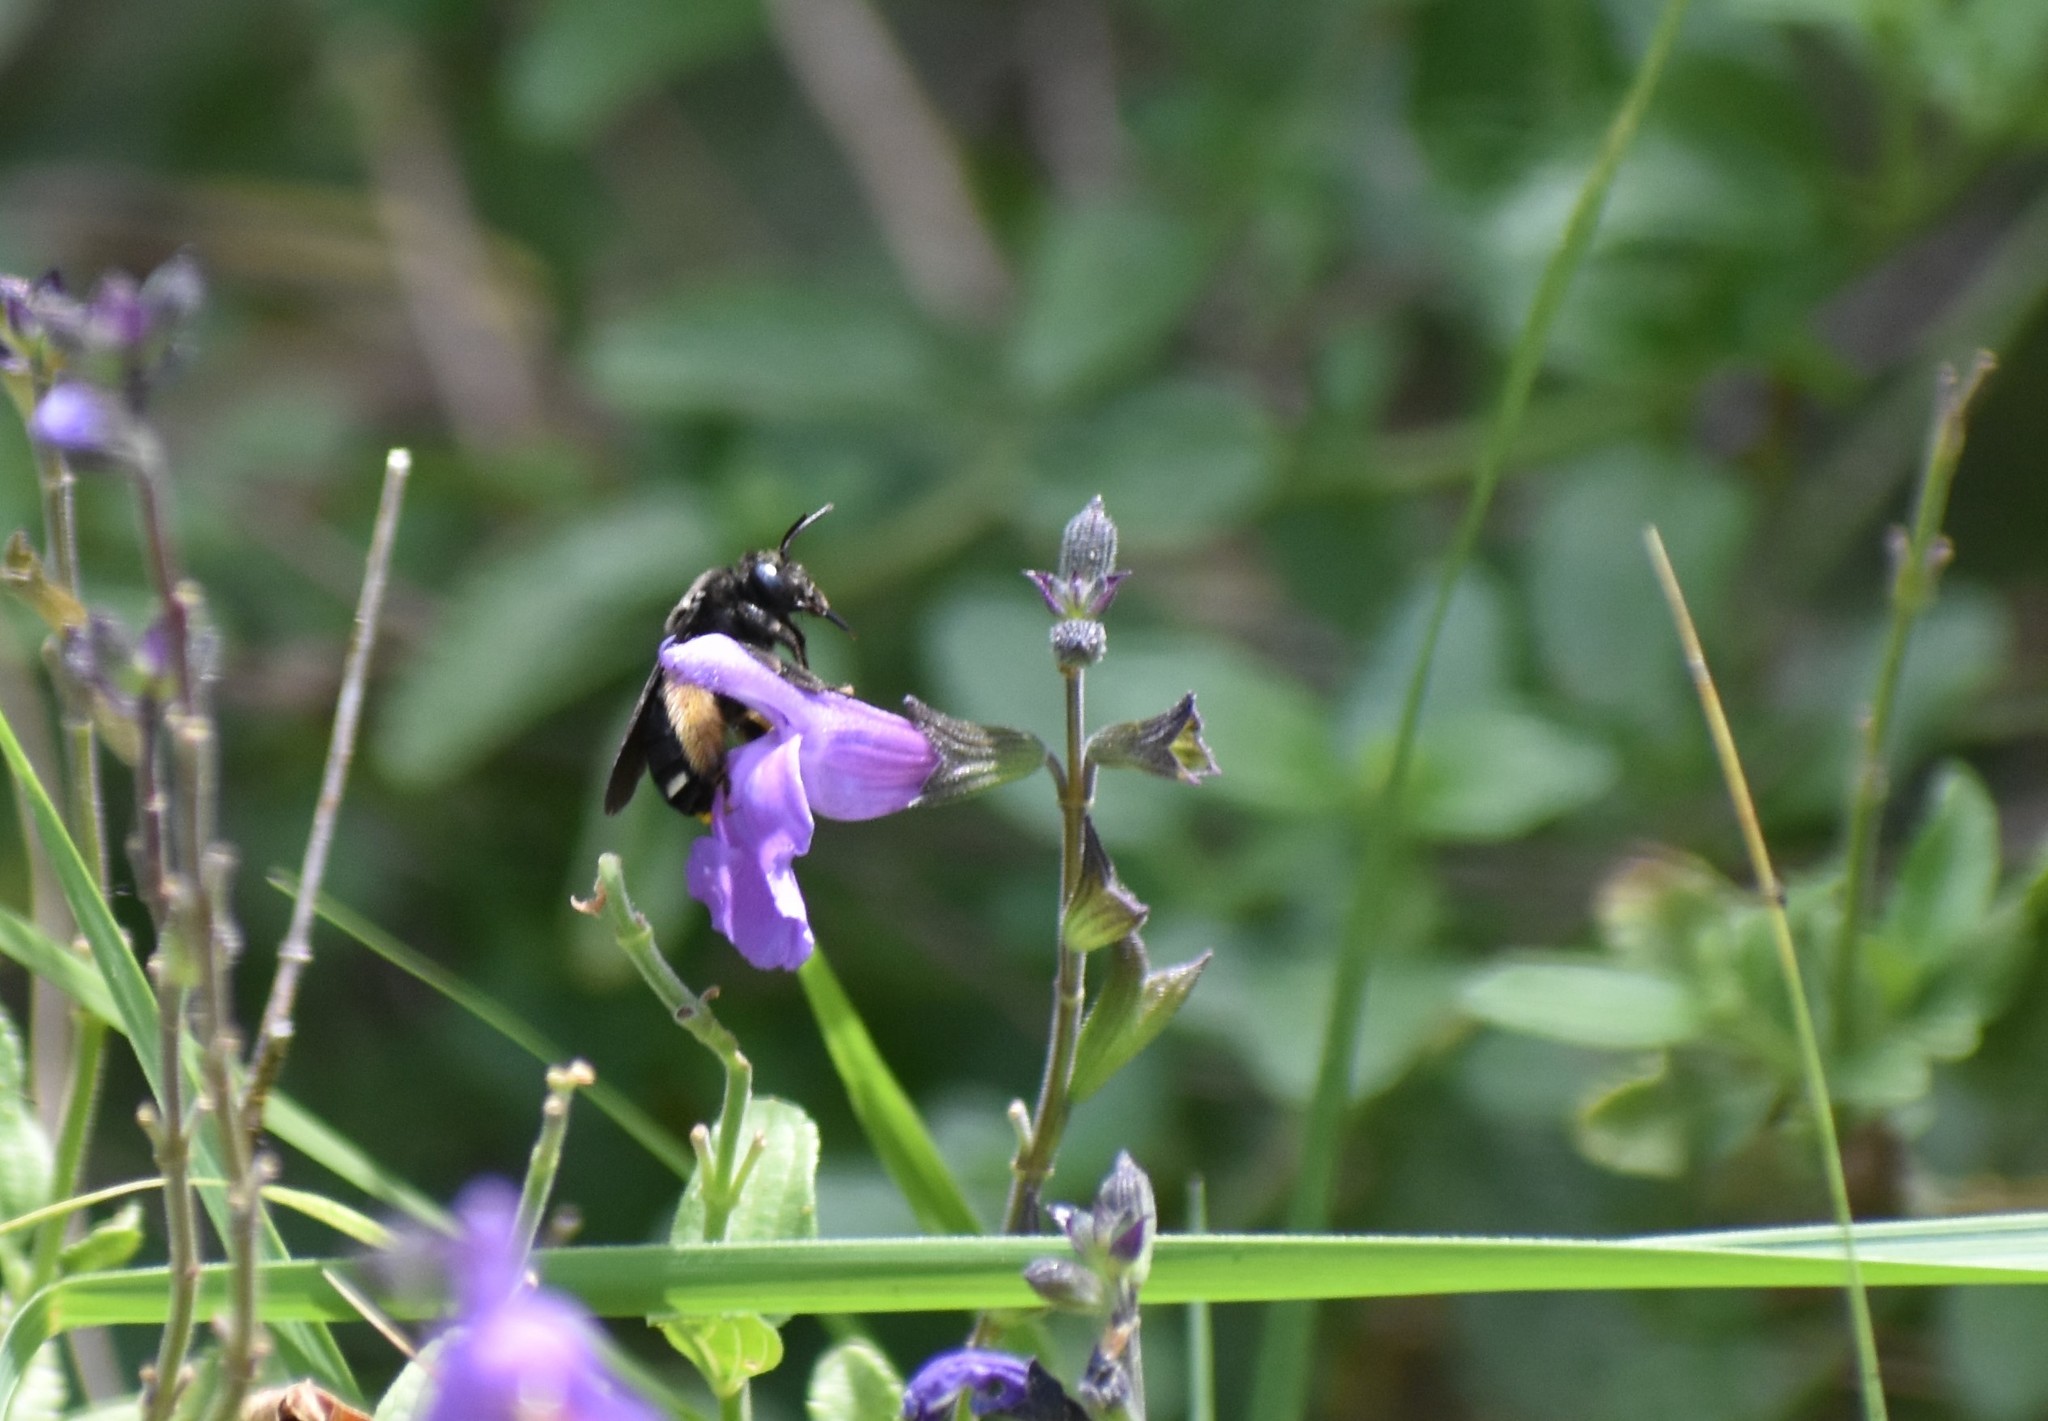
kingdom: Animalia
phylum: Arthropoda
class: Insecta
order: Hymenoptera
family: Apidae
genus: Melissodes
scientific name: Melissodes bimaculatus
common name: Two-spotted long-horned bee
